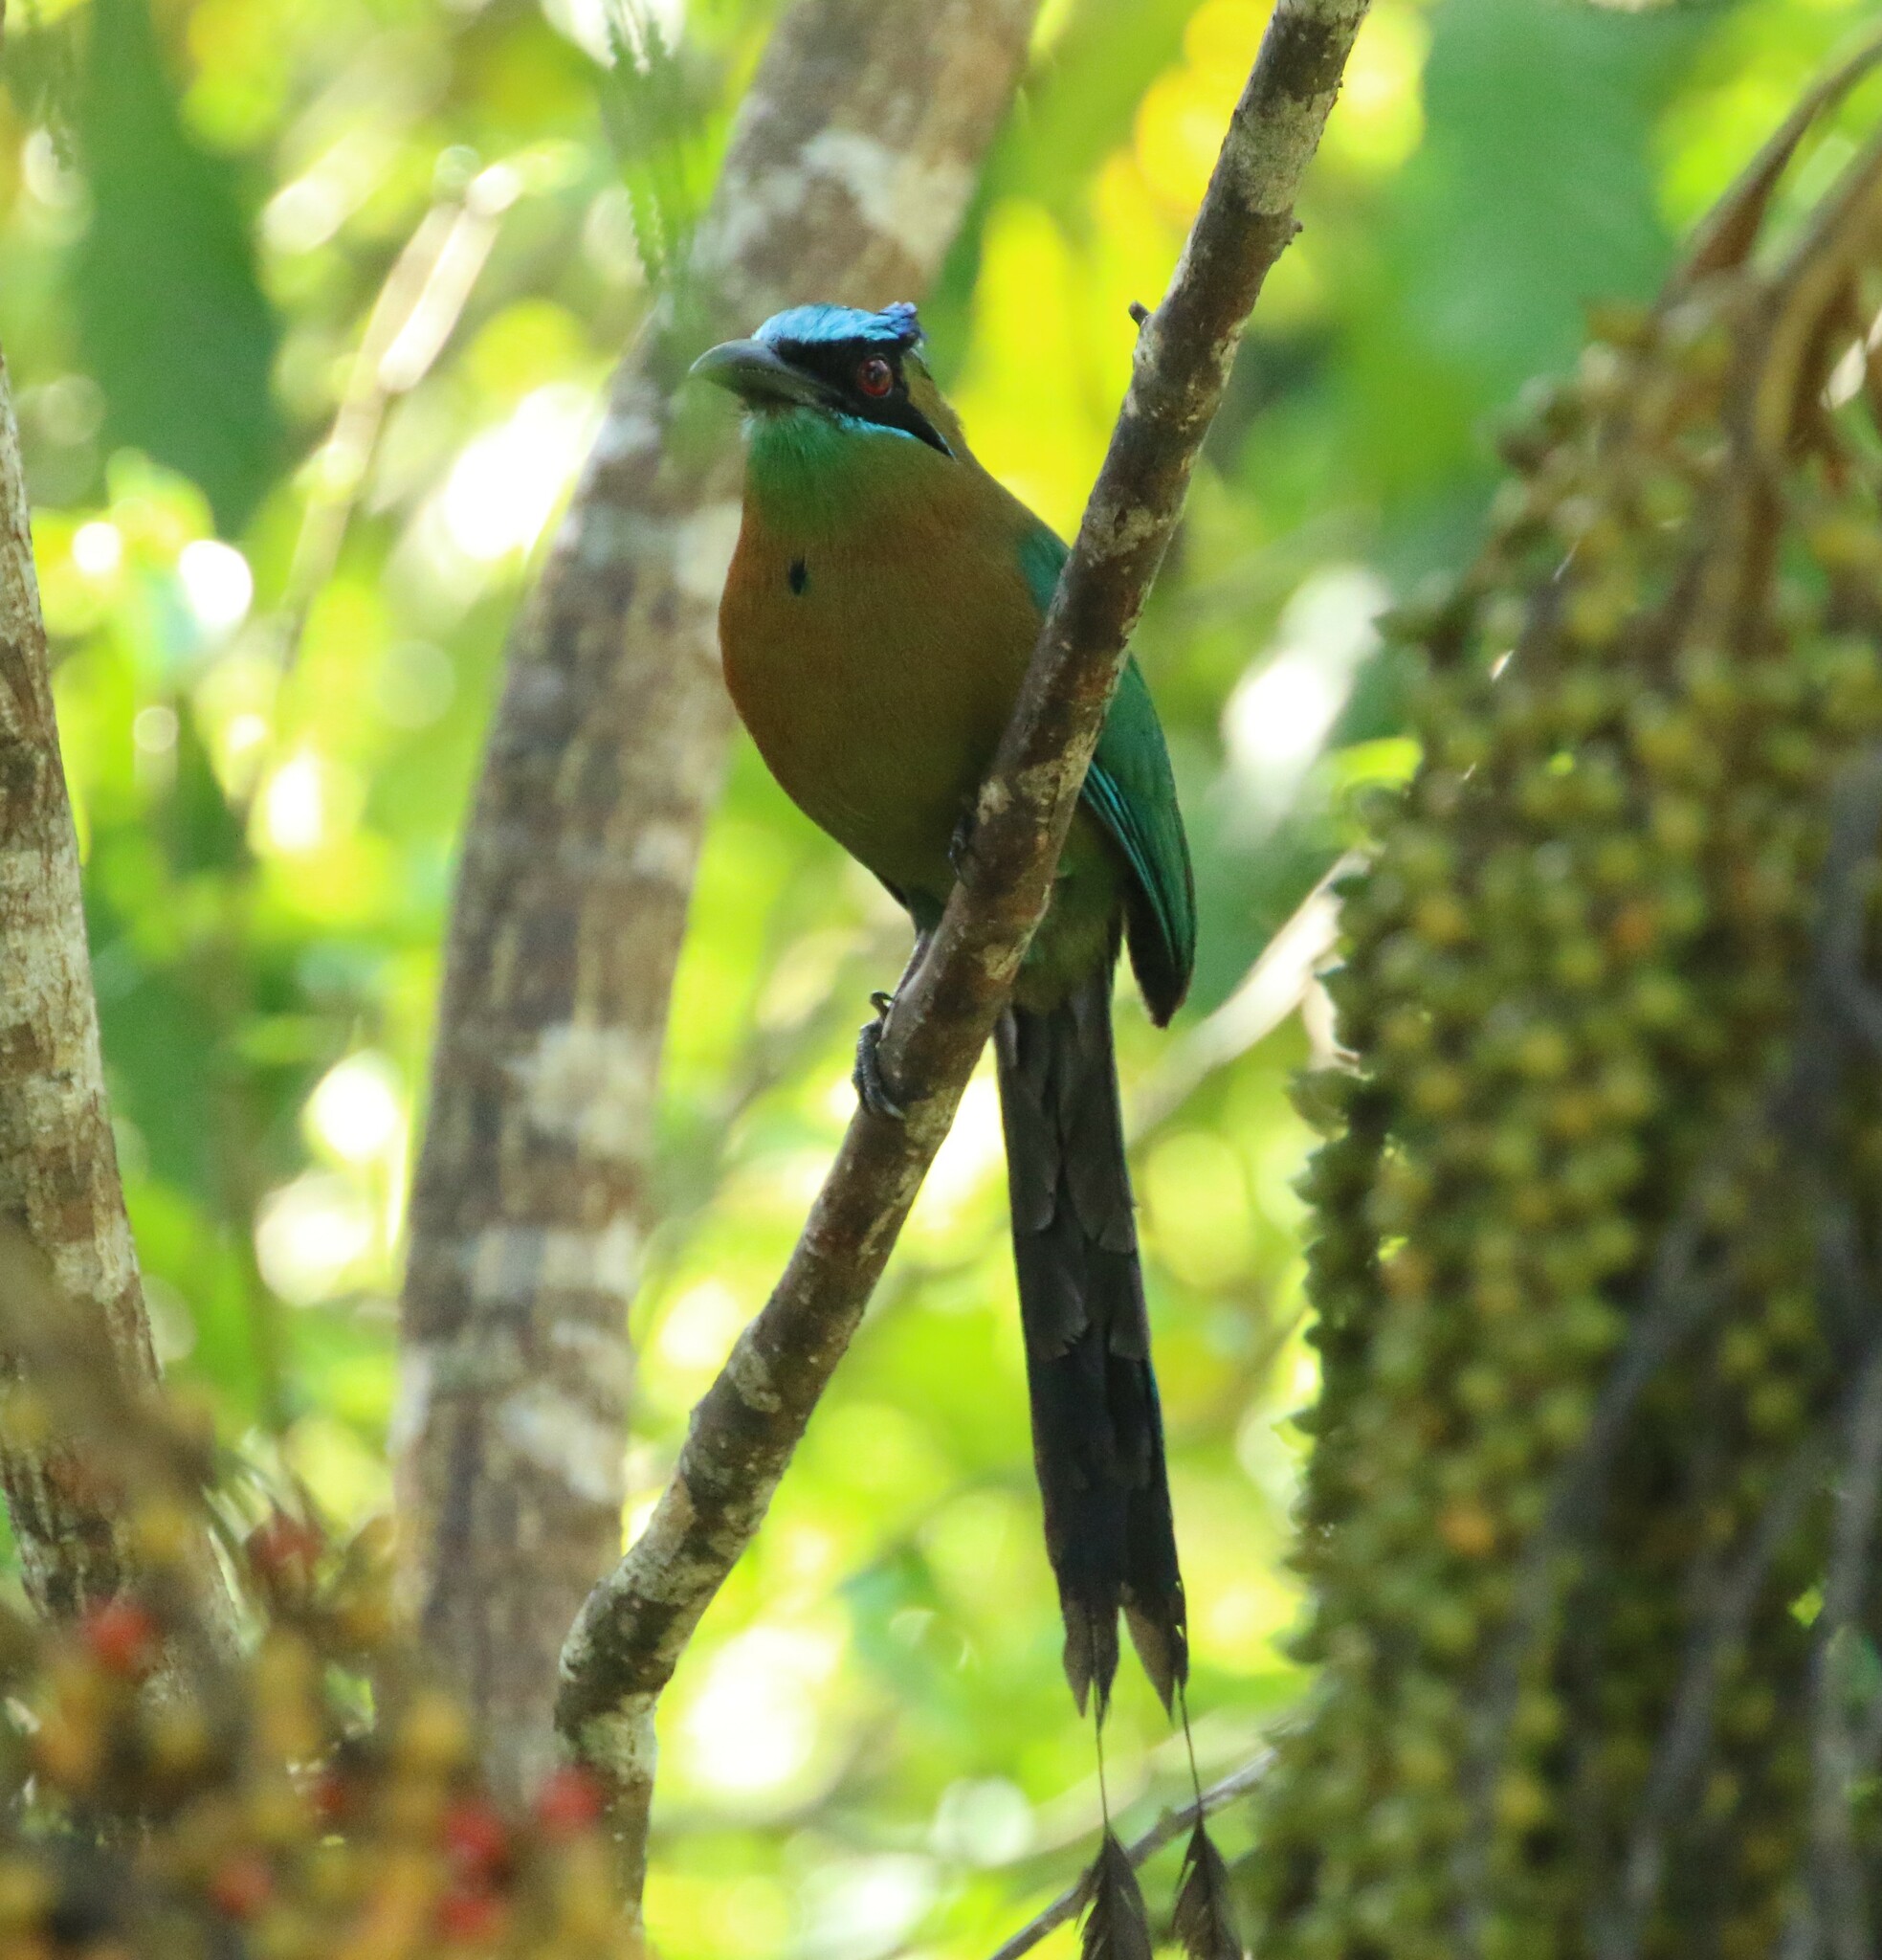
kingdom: Animalia
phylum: Chordata
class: Aves
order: Coraciiformes
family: Momotidae
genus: Momotus
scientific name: Momotus lessonii
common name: Lesson's motmot
